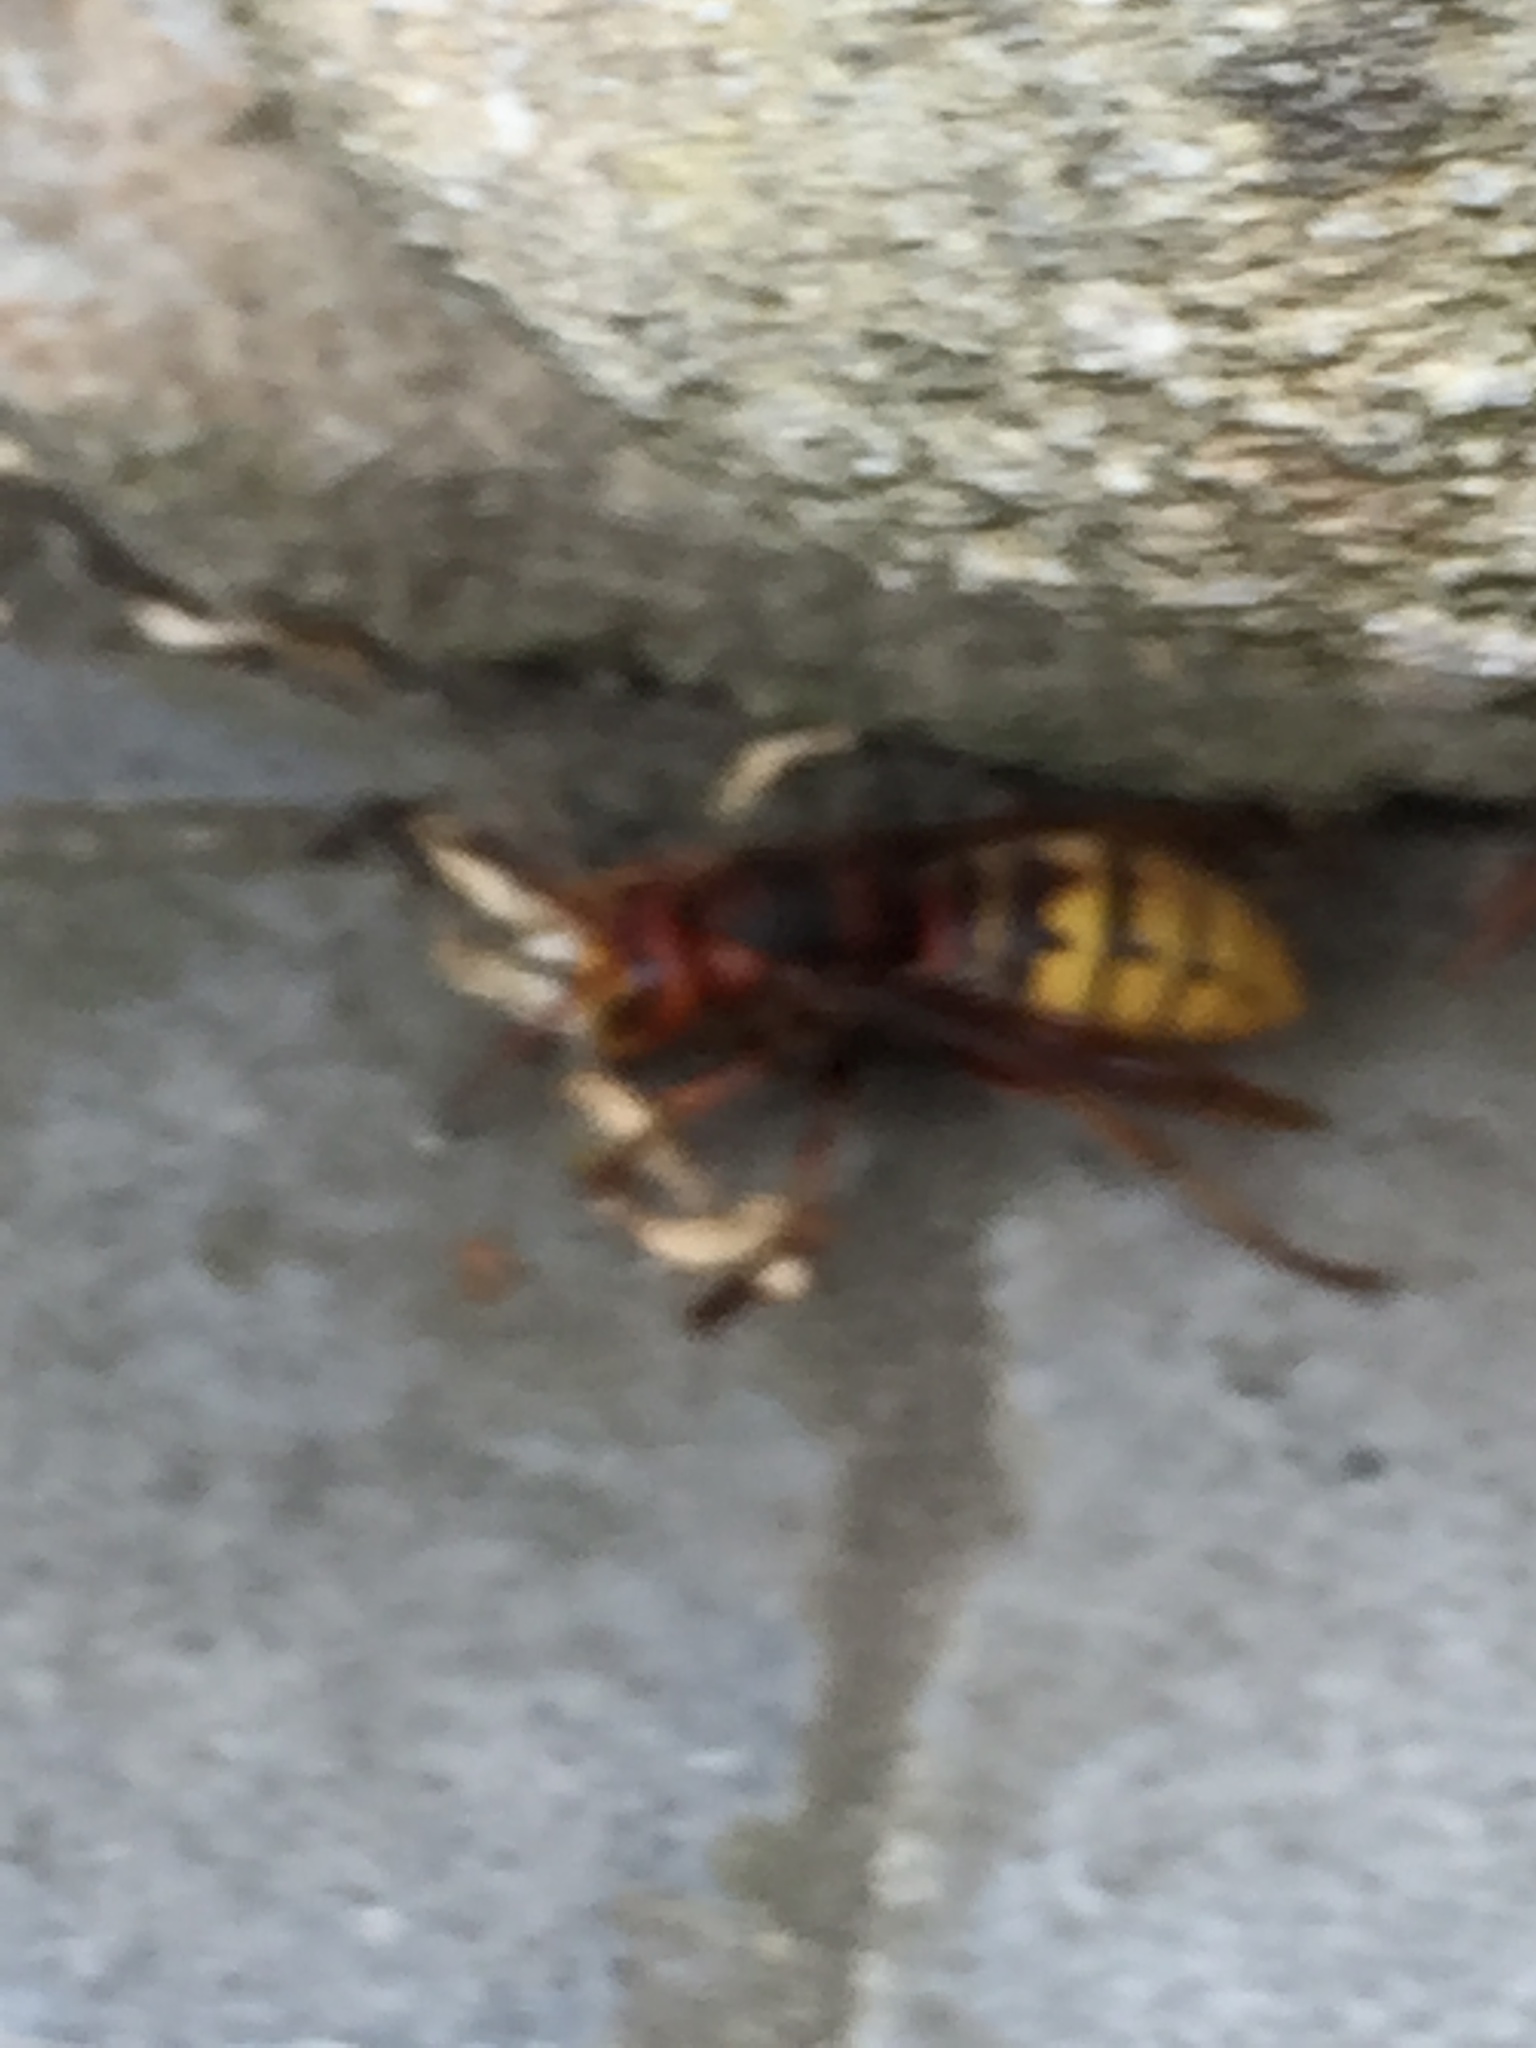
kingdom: Animalia
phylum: Arthropoda
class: Insecta
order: Hymenoptera
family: Vespidae
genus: Vespa
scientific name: Vespa crabro
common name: Hornet
